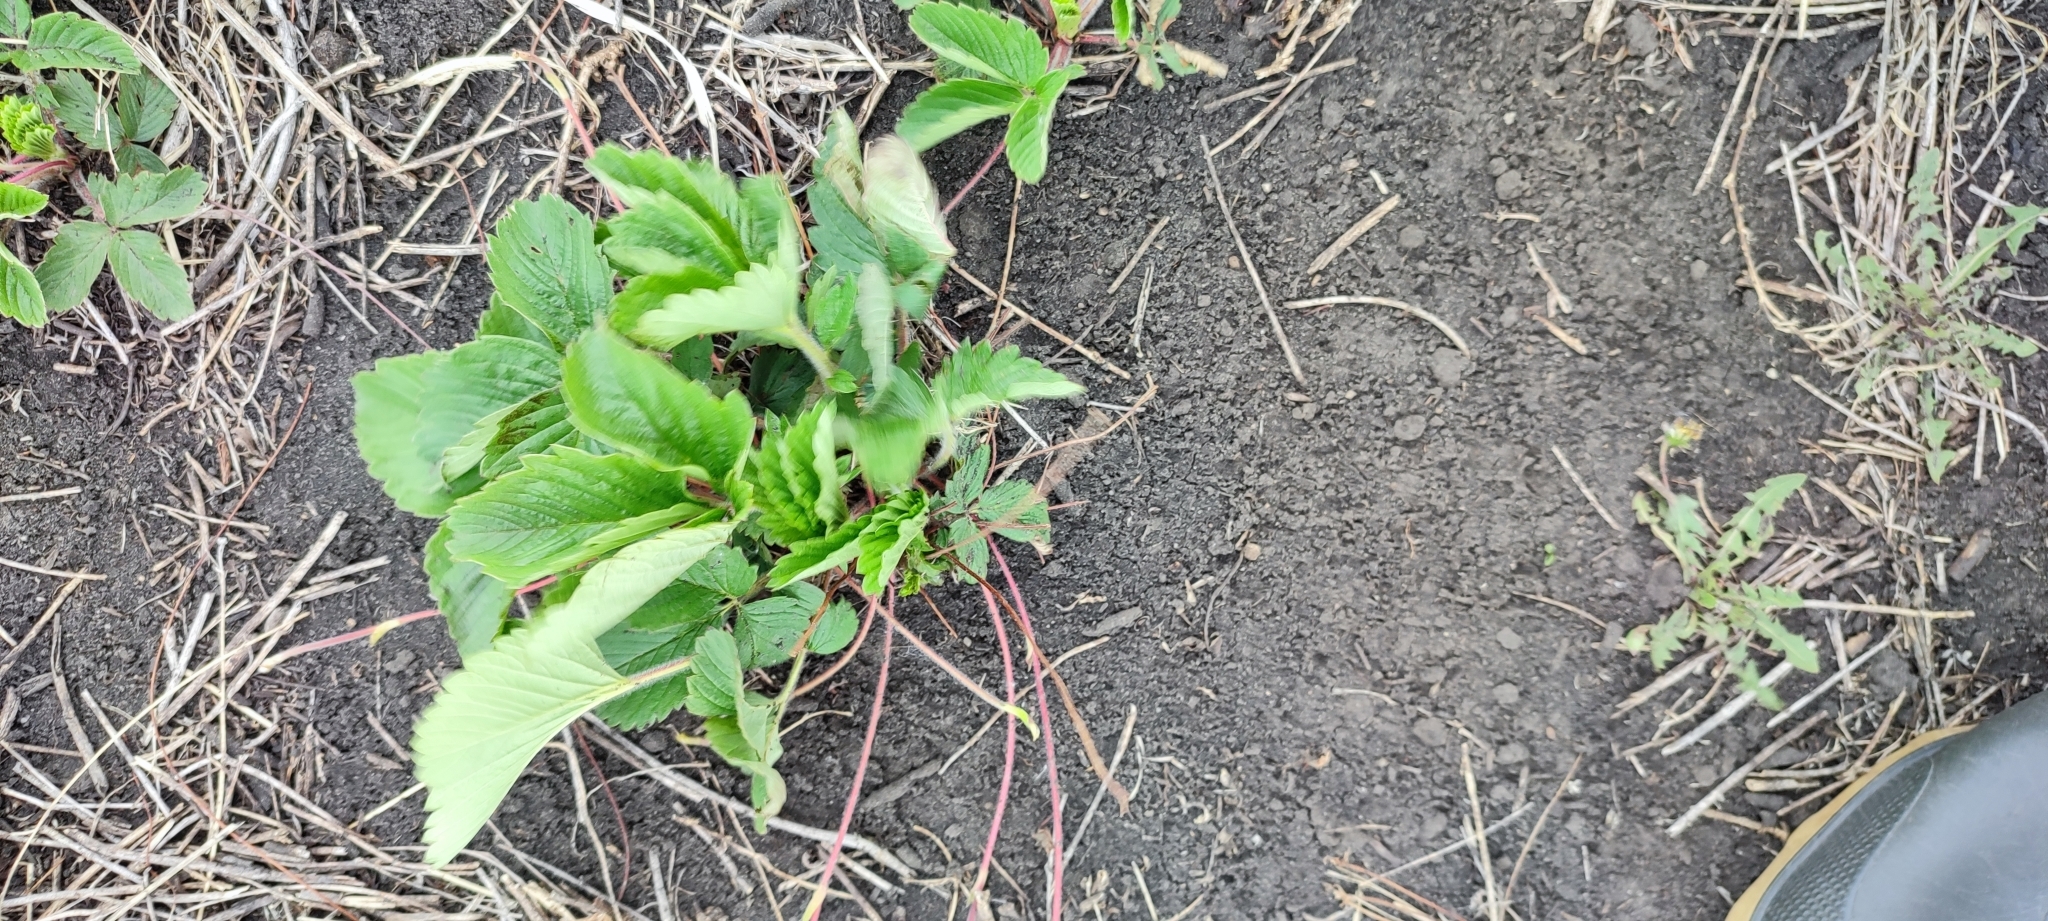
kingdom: Plantae
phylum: Tracheophyta
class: Magnoliopsida
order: Rosales
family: Rosaceae
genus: Fragaria
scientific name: Fragaria ananassa
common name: Garden strawberry
